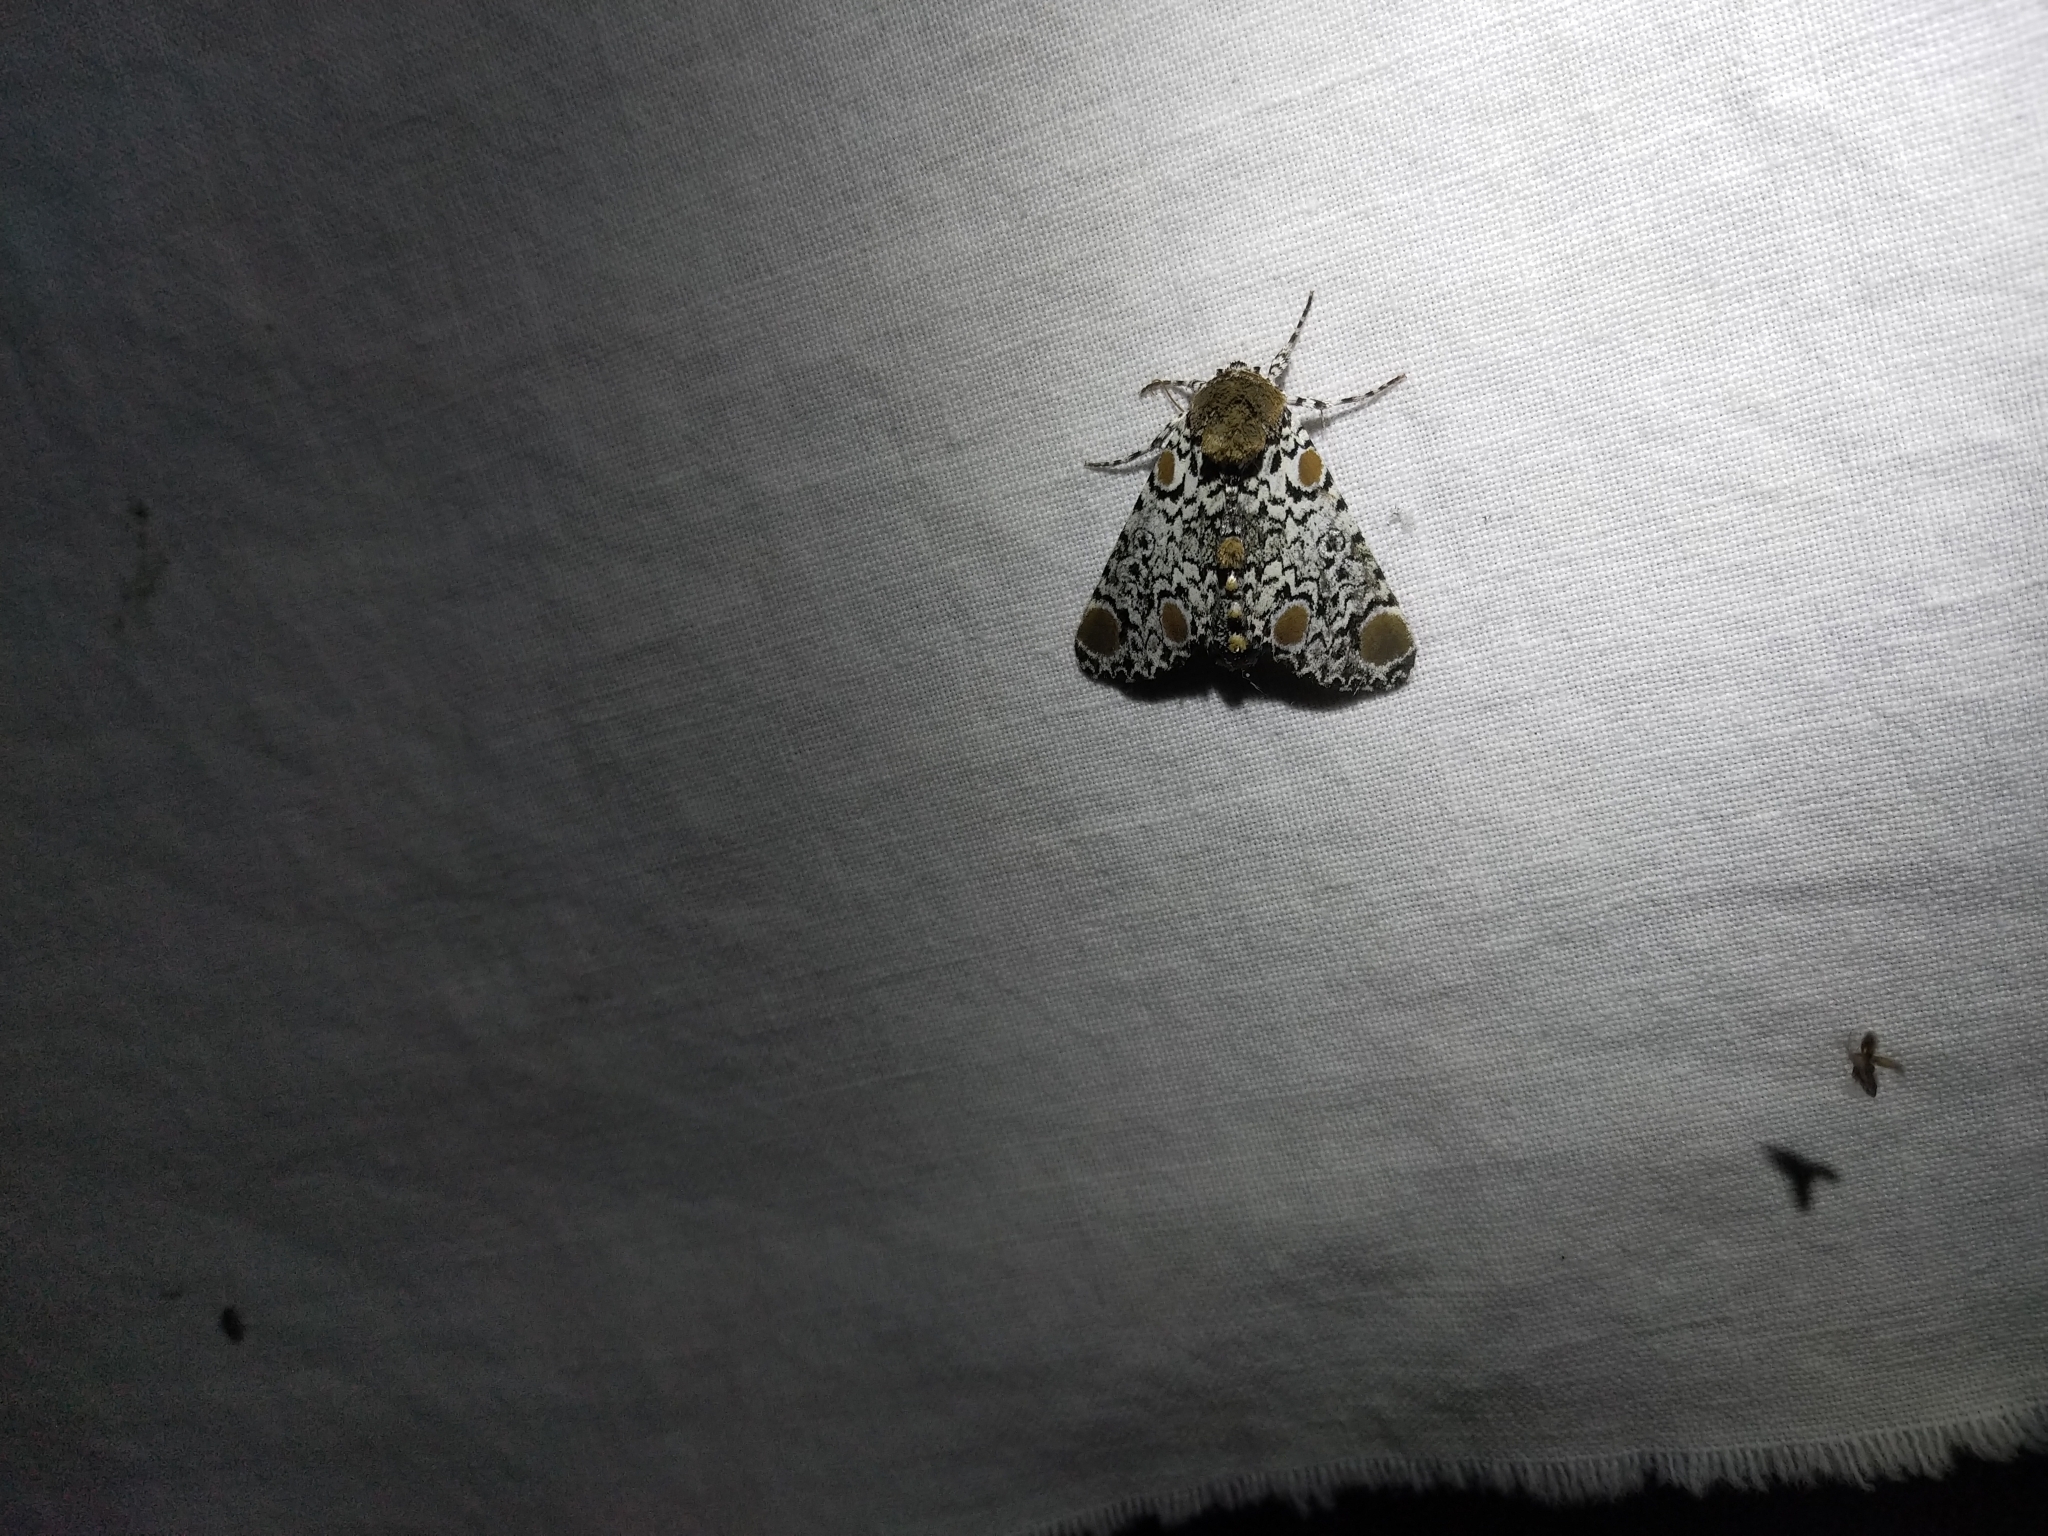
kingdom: Animalia
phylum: Arthropoda
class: Insecta
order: Lepidoptera
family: Noctuidae
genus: Harrisimemna
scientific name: Harrisimemna trisignata
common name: Harris threespot
